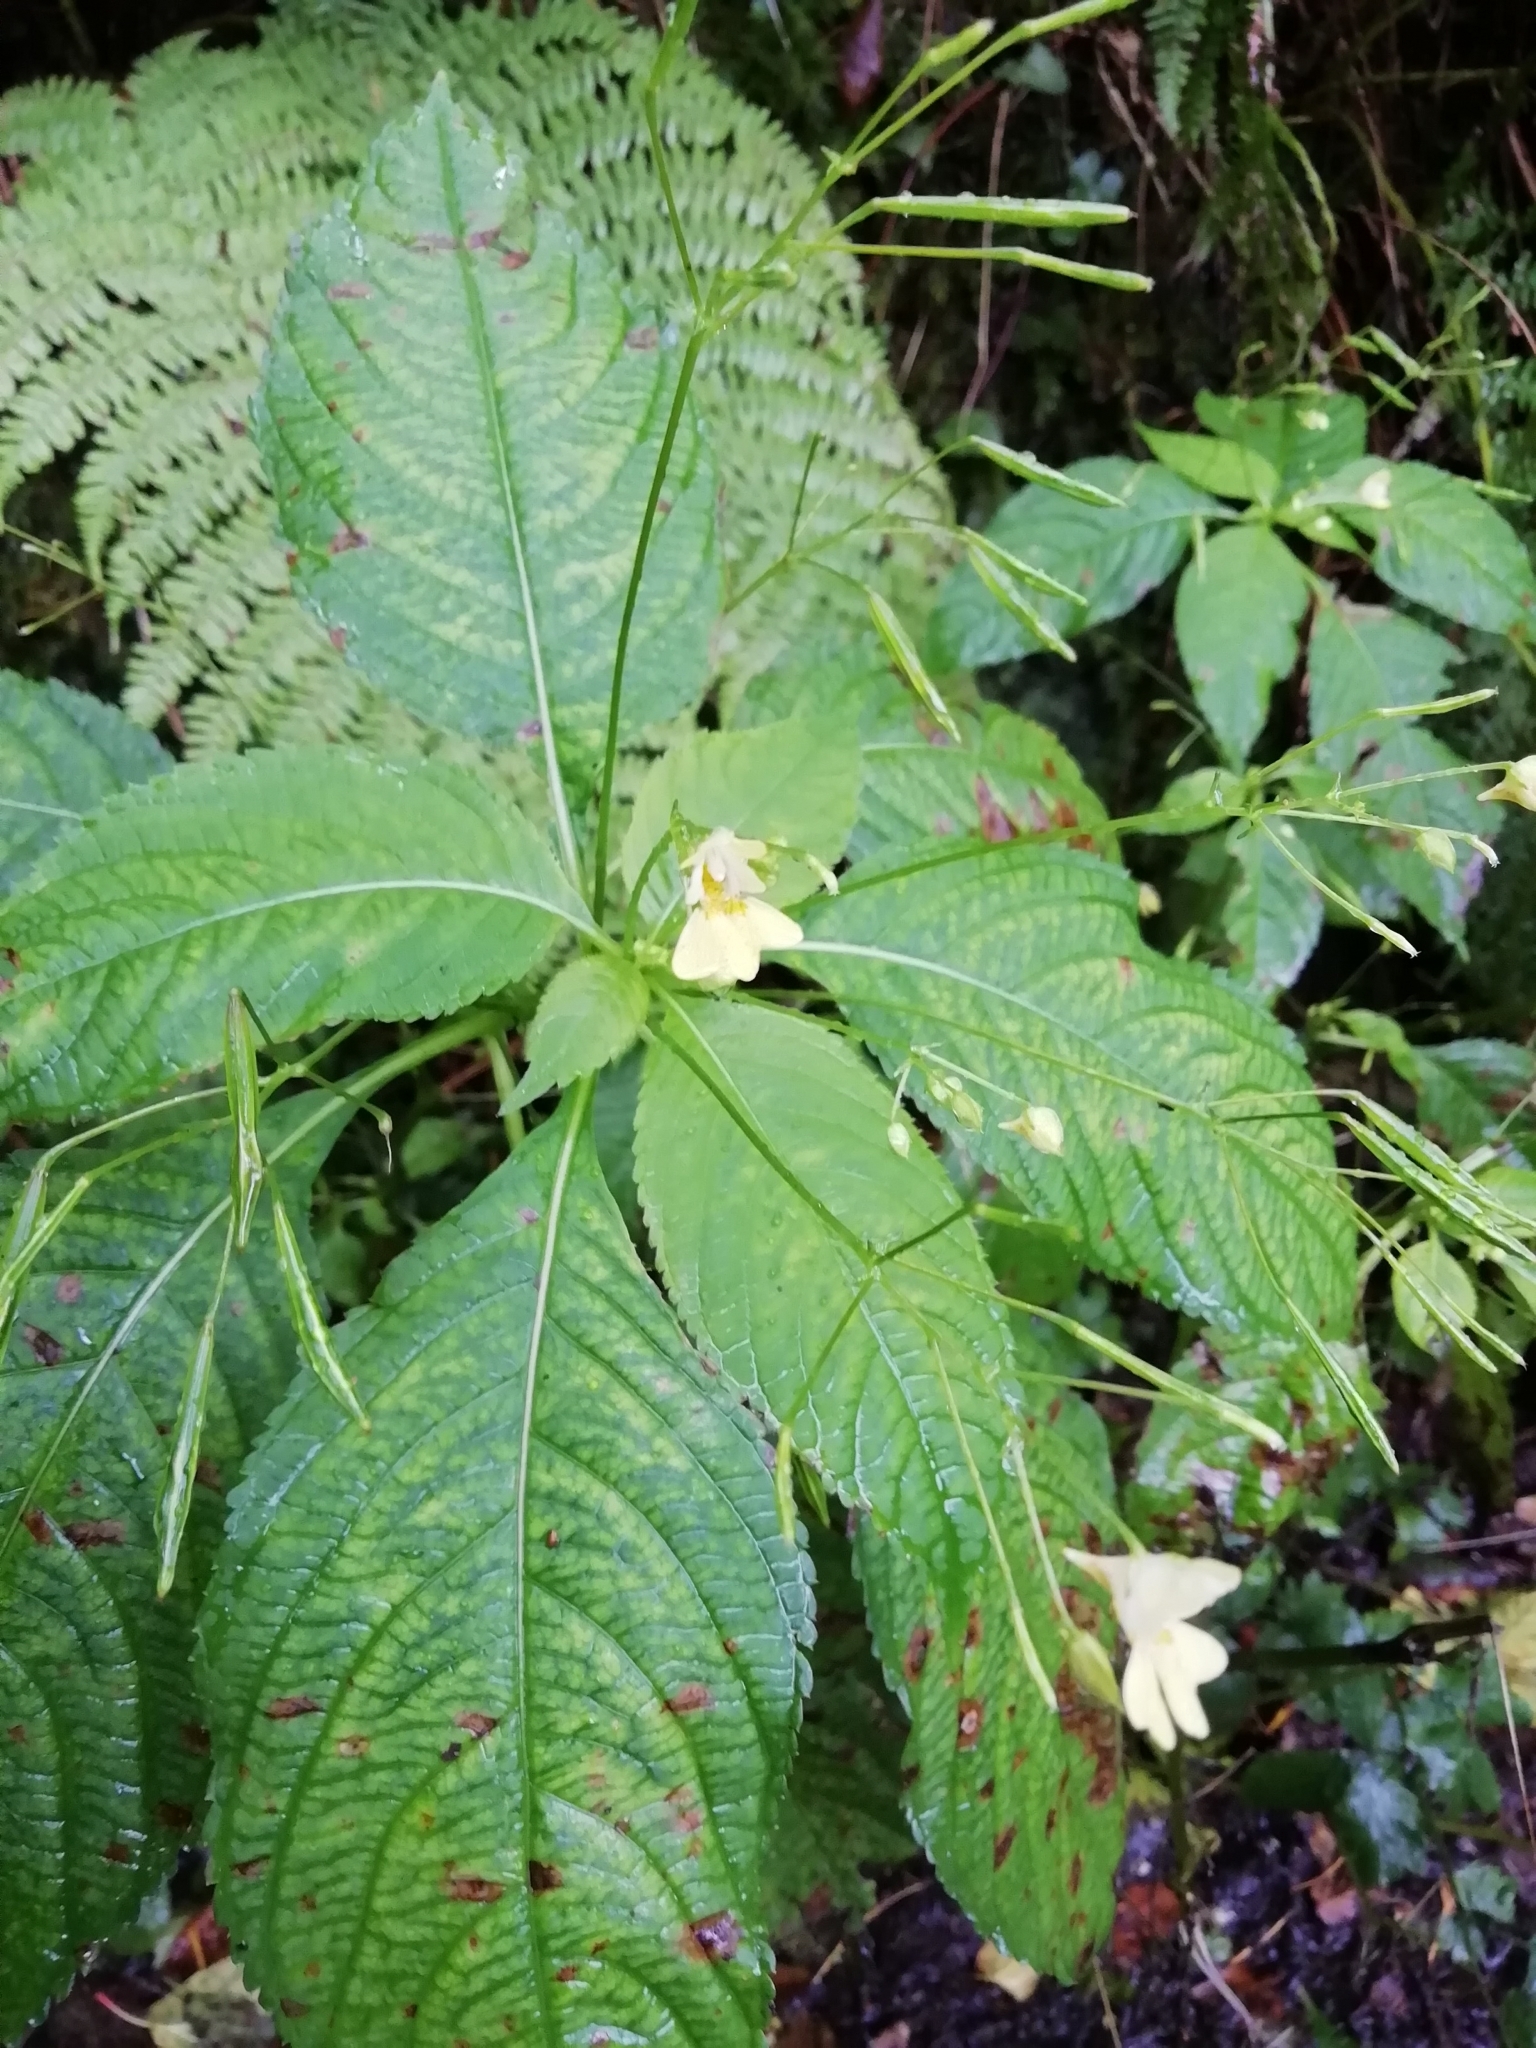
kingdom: Plantae
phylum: Tracheophyta
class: Magnoliopsida
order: Ericales
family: Balsaminaceae
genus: Impatiens
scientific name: Impatiens parviflora
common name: Small balsam
